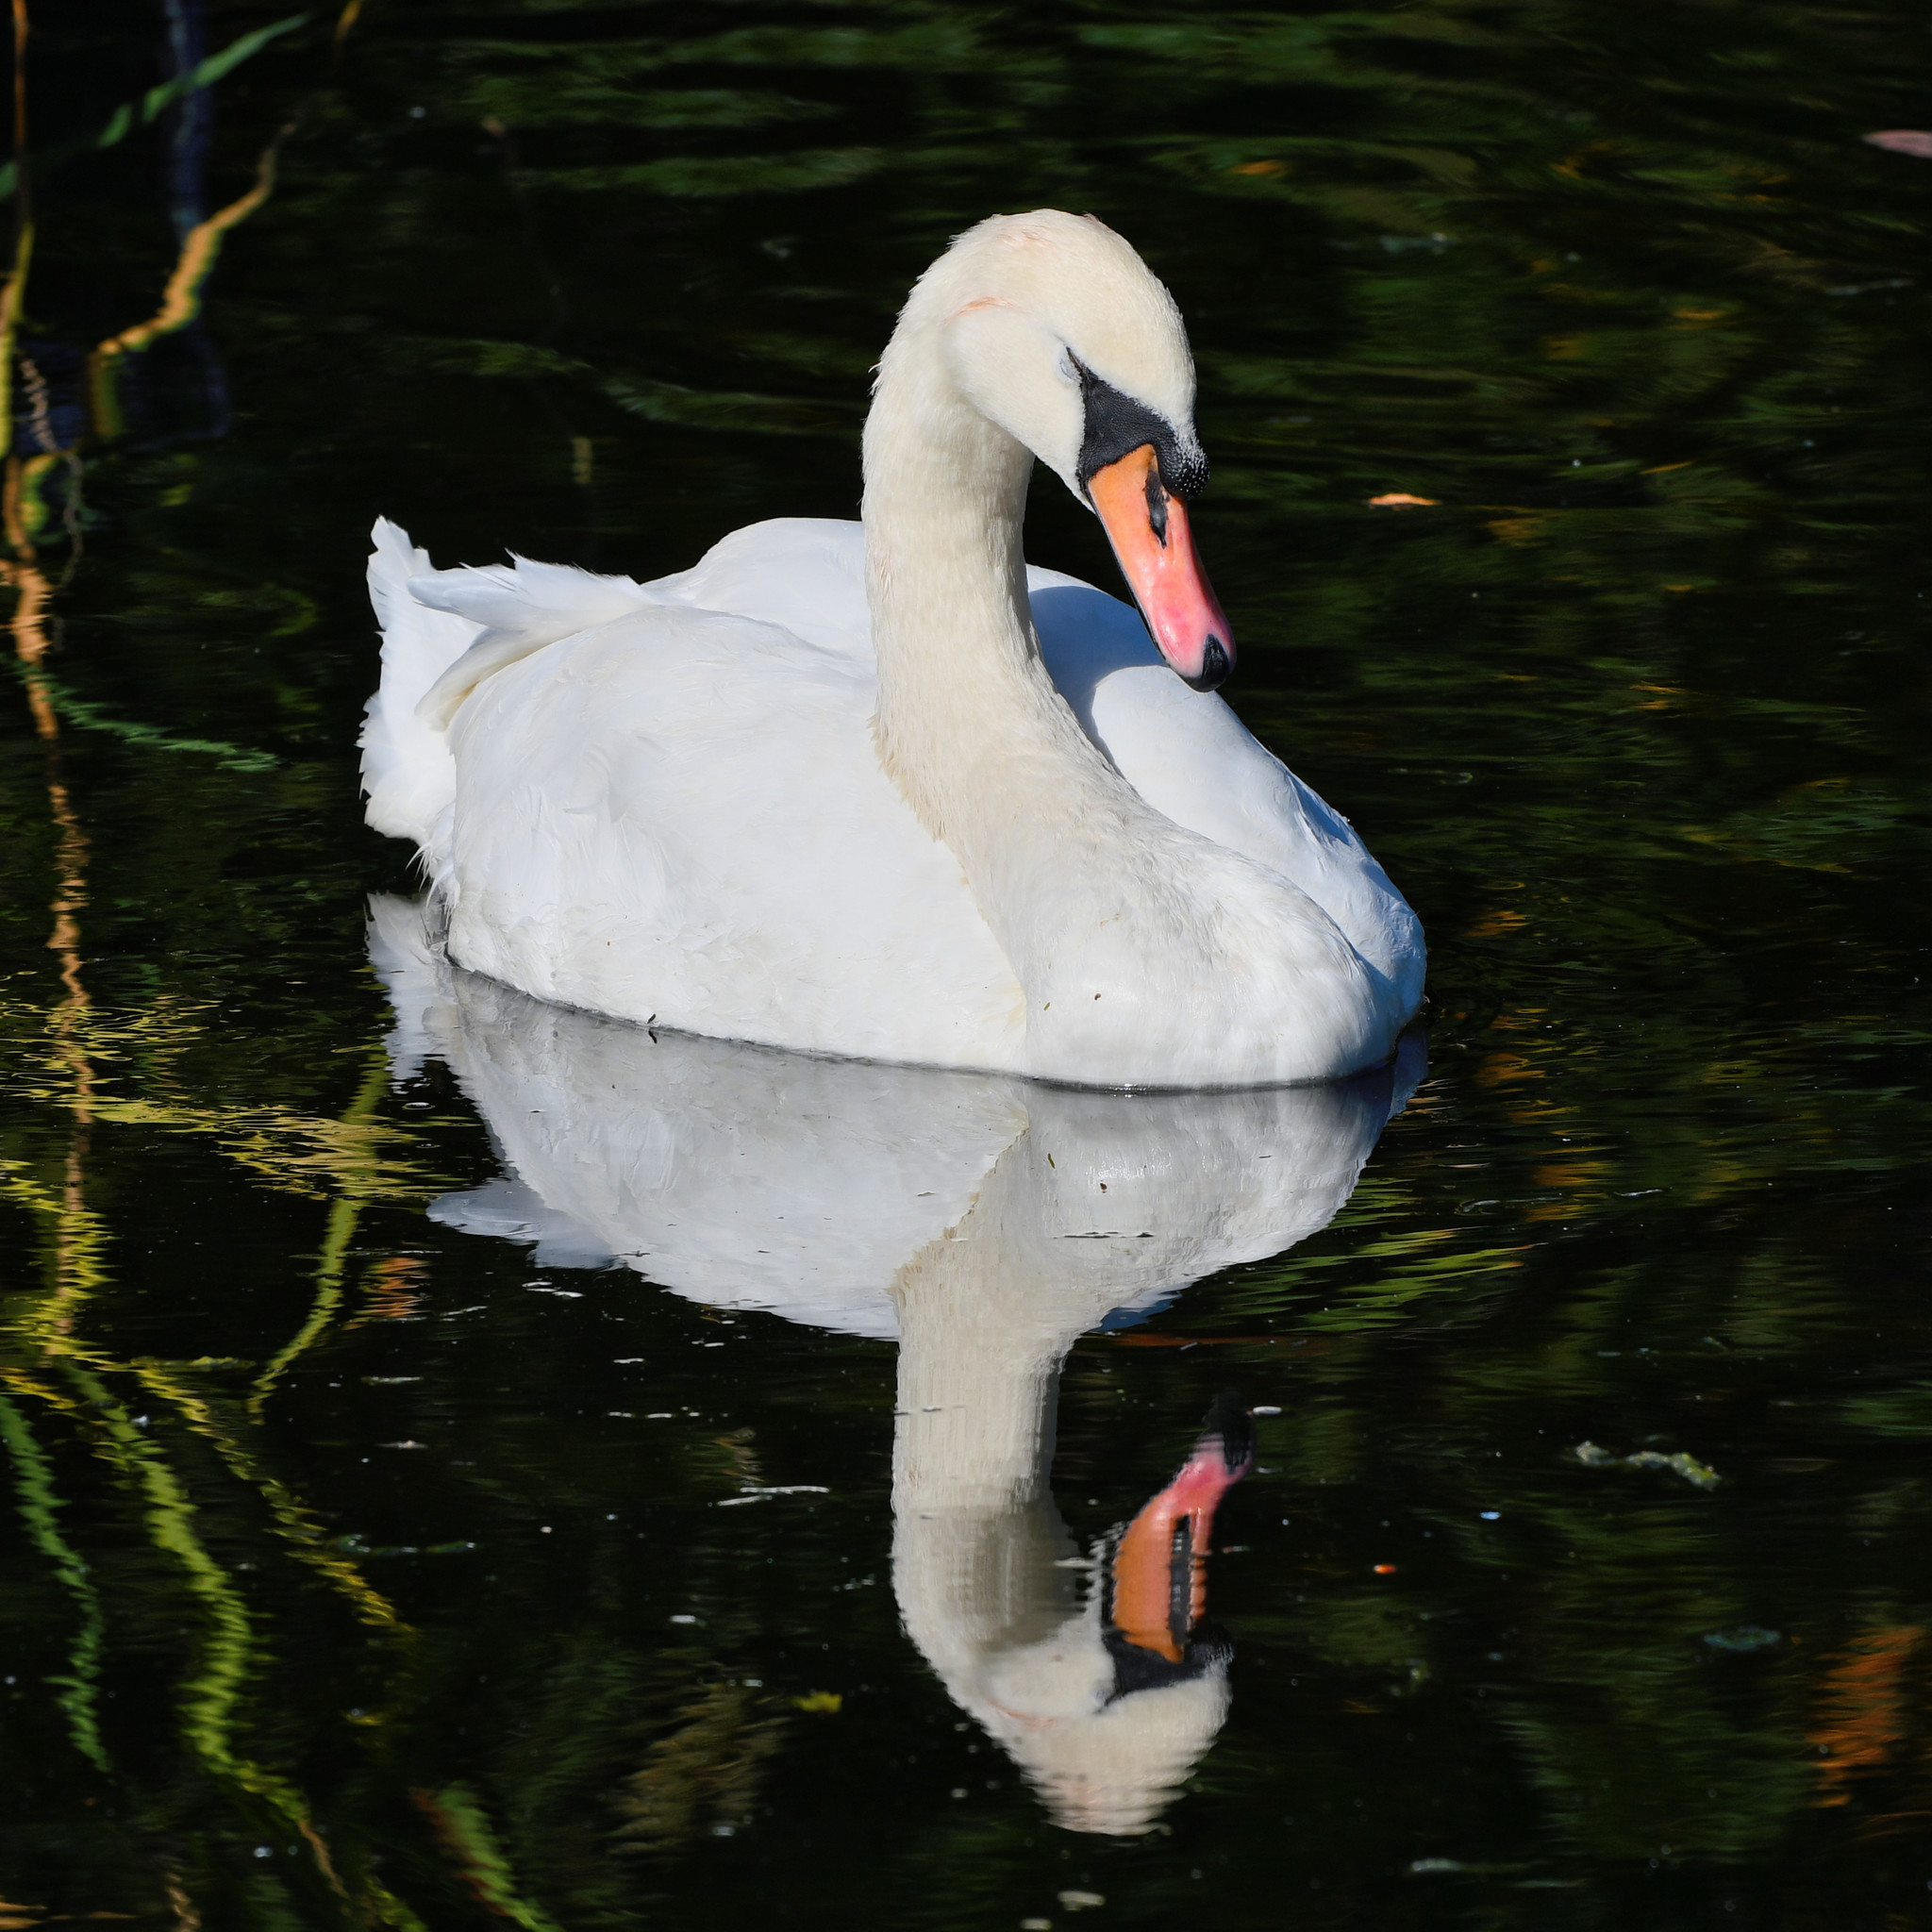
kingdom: Animalia
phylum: Chordata
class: Aves
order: Anseriformes
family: Anatidae
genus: Cygnus
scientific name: Cygnus olor
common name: Mute swan
